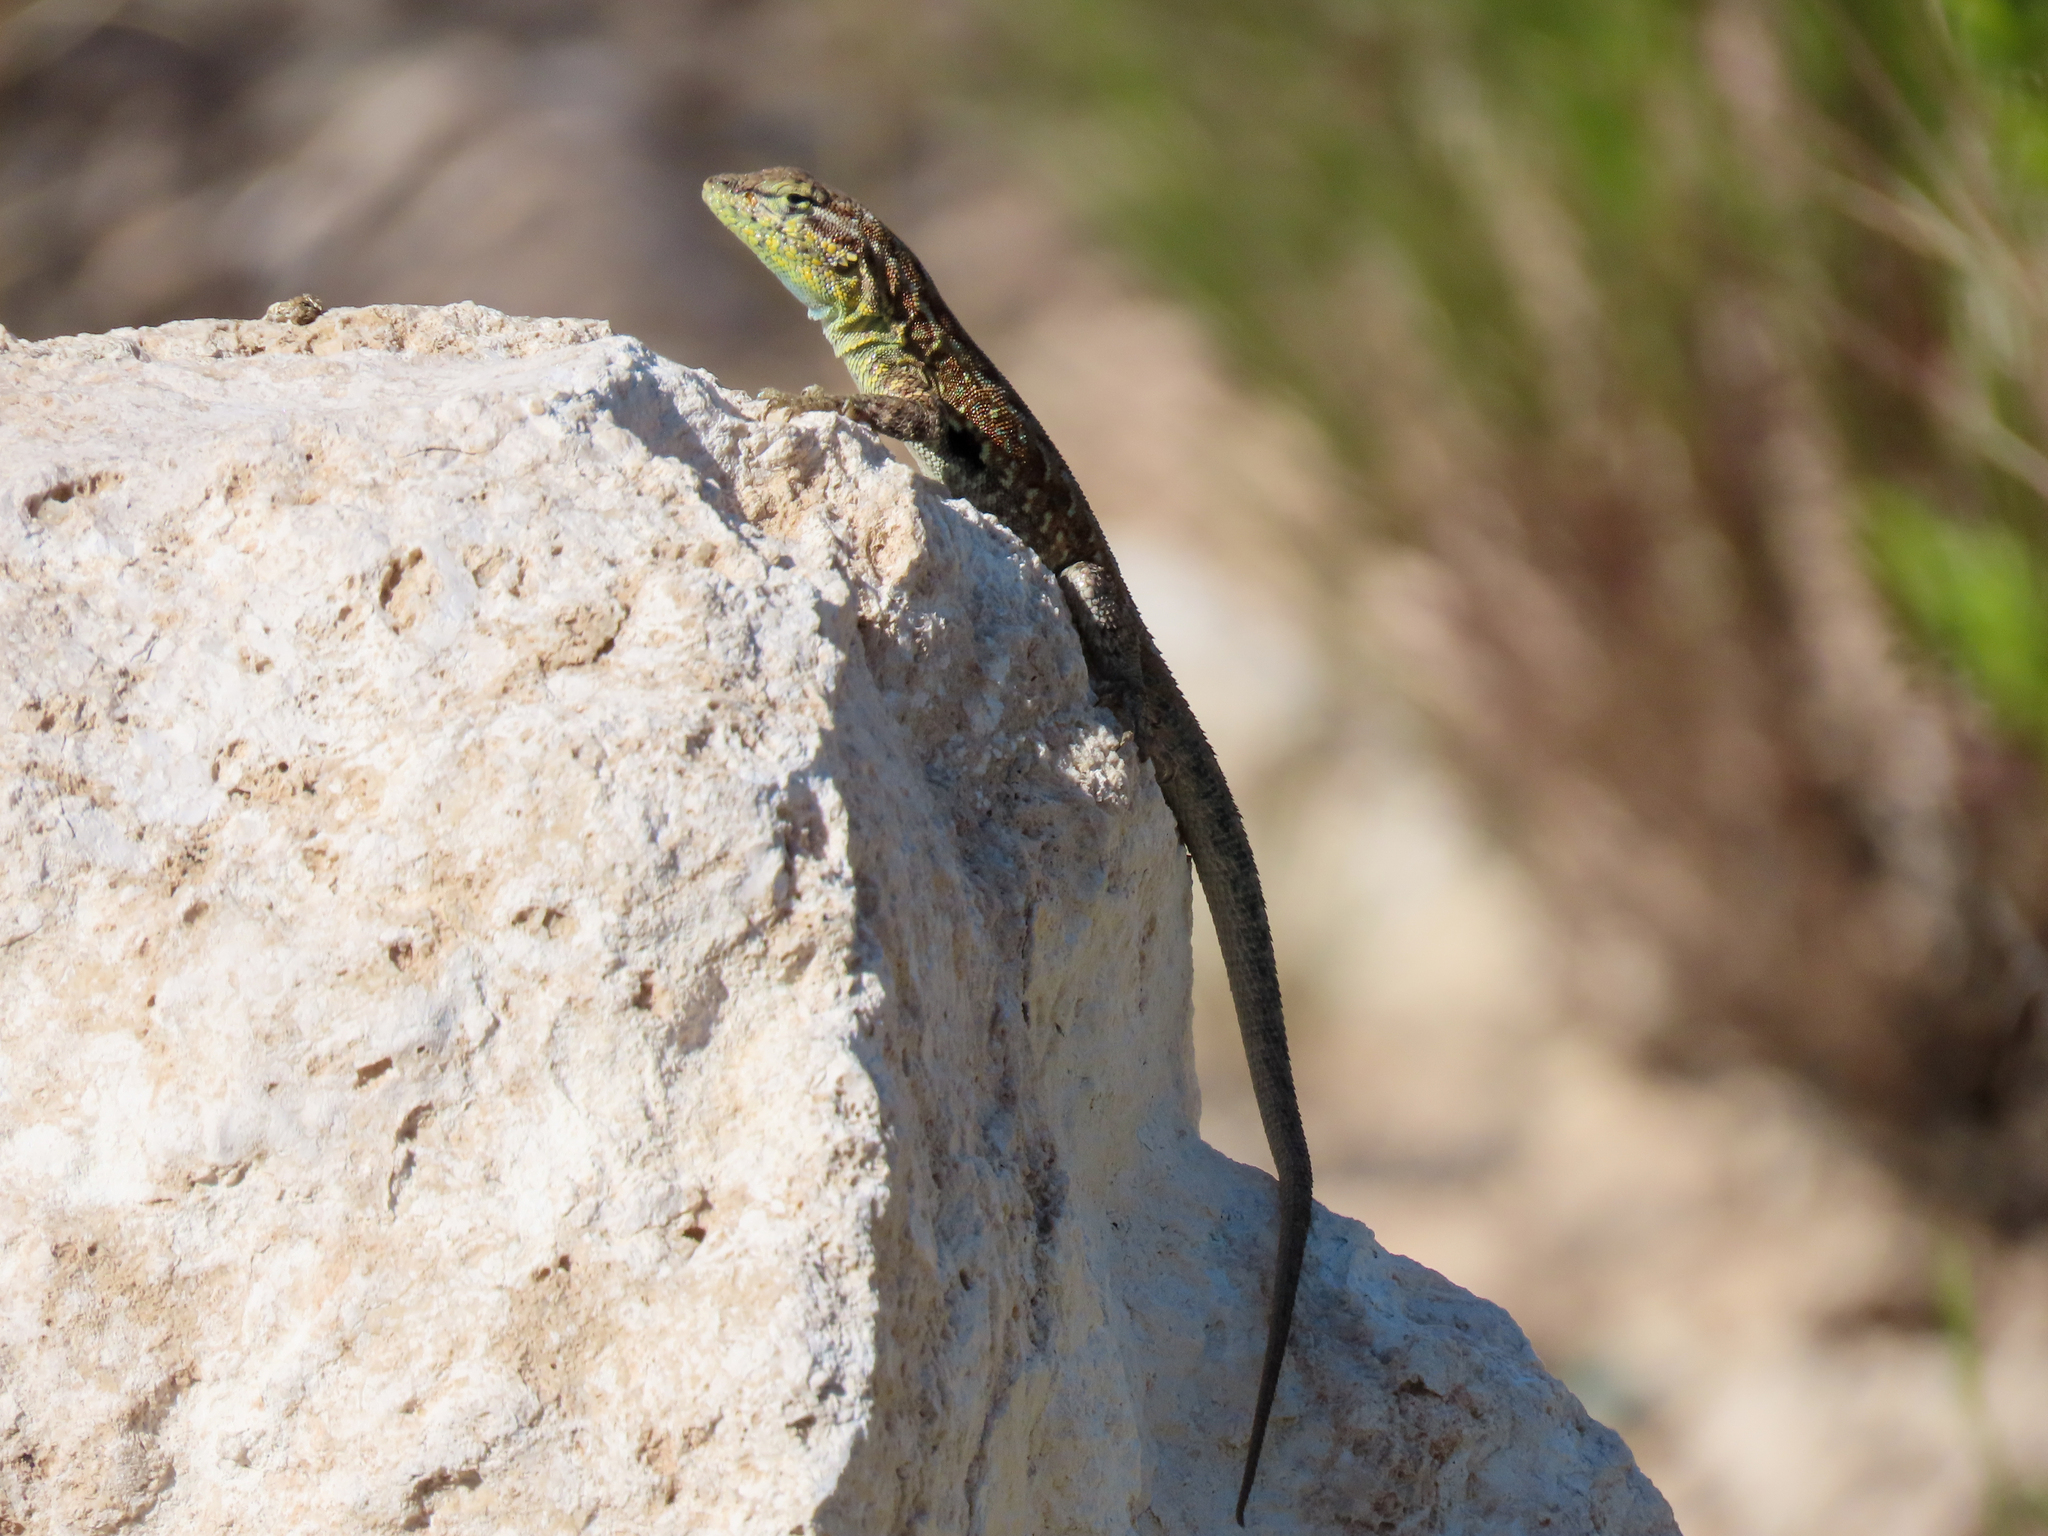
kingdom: Animalia
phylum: Chordata
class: Squamata
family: Phrynosomatidae
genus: Uta
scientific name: Uta stansburiana
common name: Side-blotched lizard
